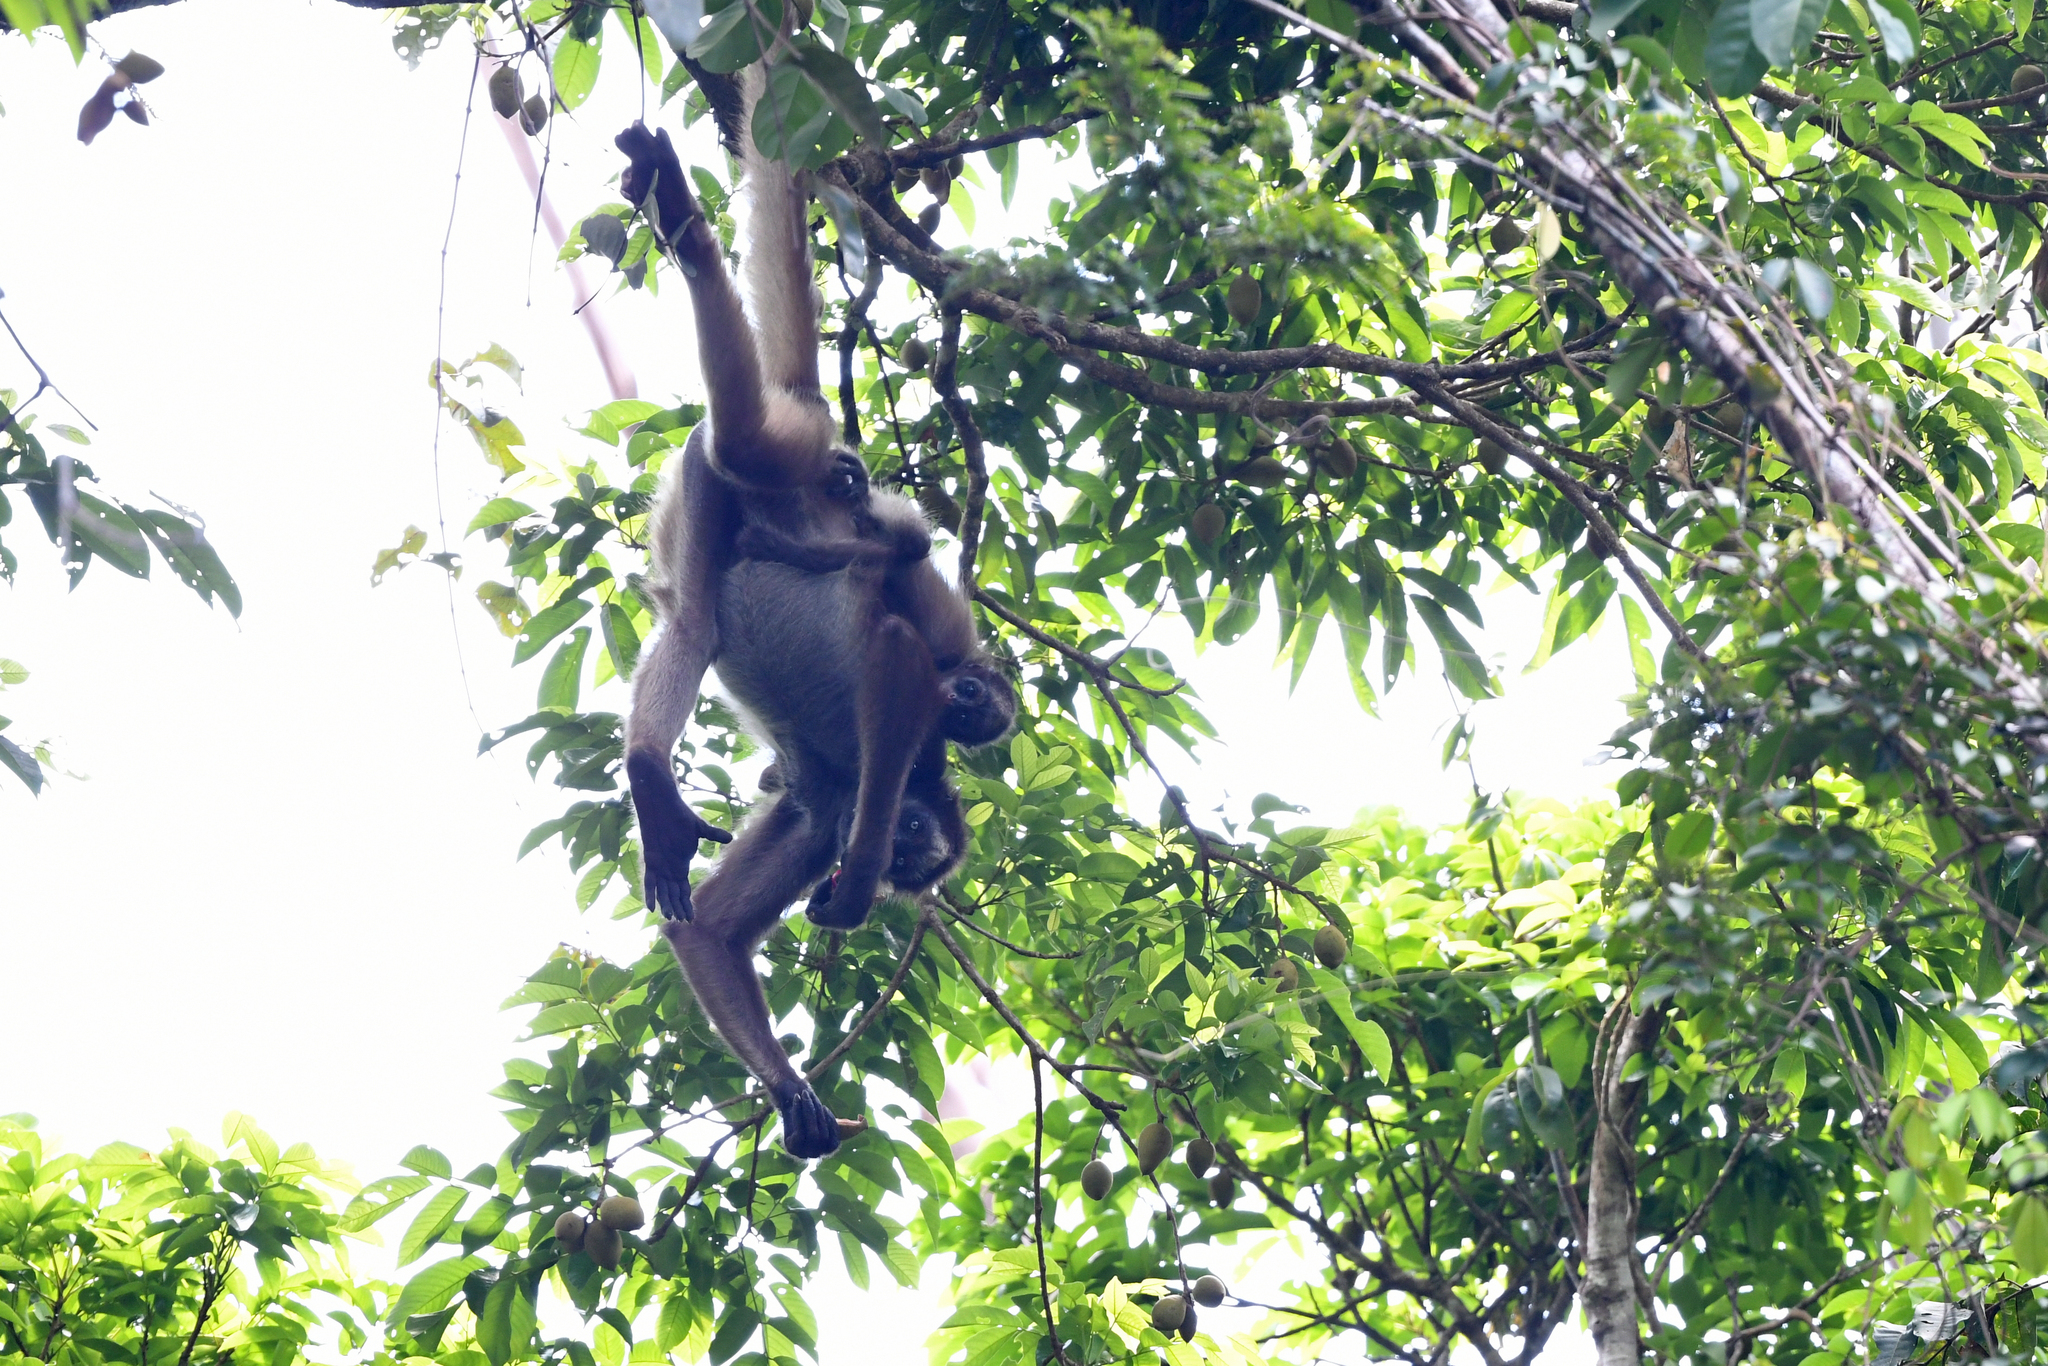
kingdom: Animalia
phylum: Chordata
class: Mammalia
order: Primates
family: Atelidae
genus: Ateles
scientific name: Ateles hybridus
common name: Brown spider monkey
